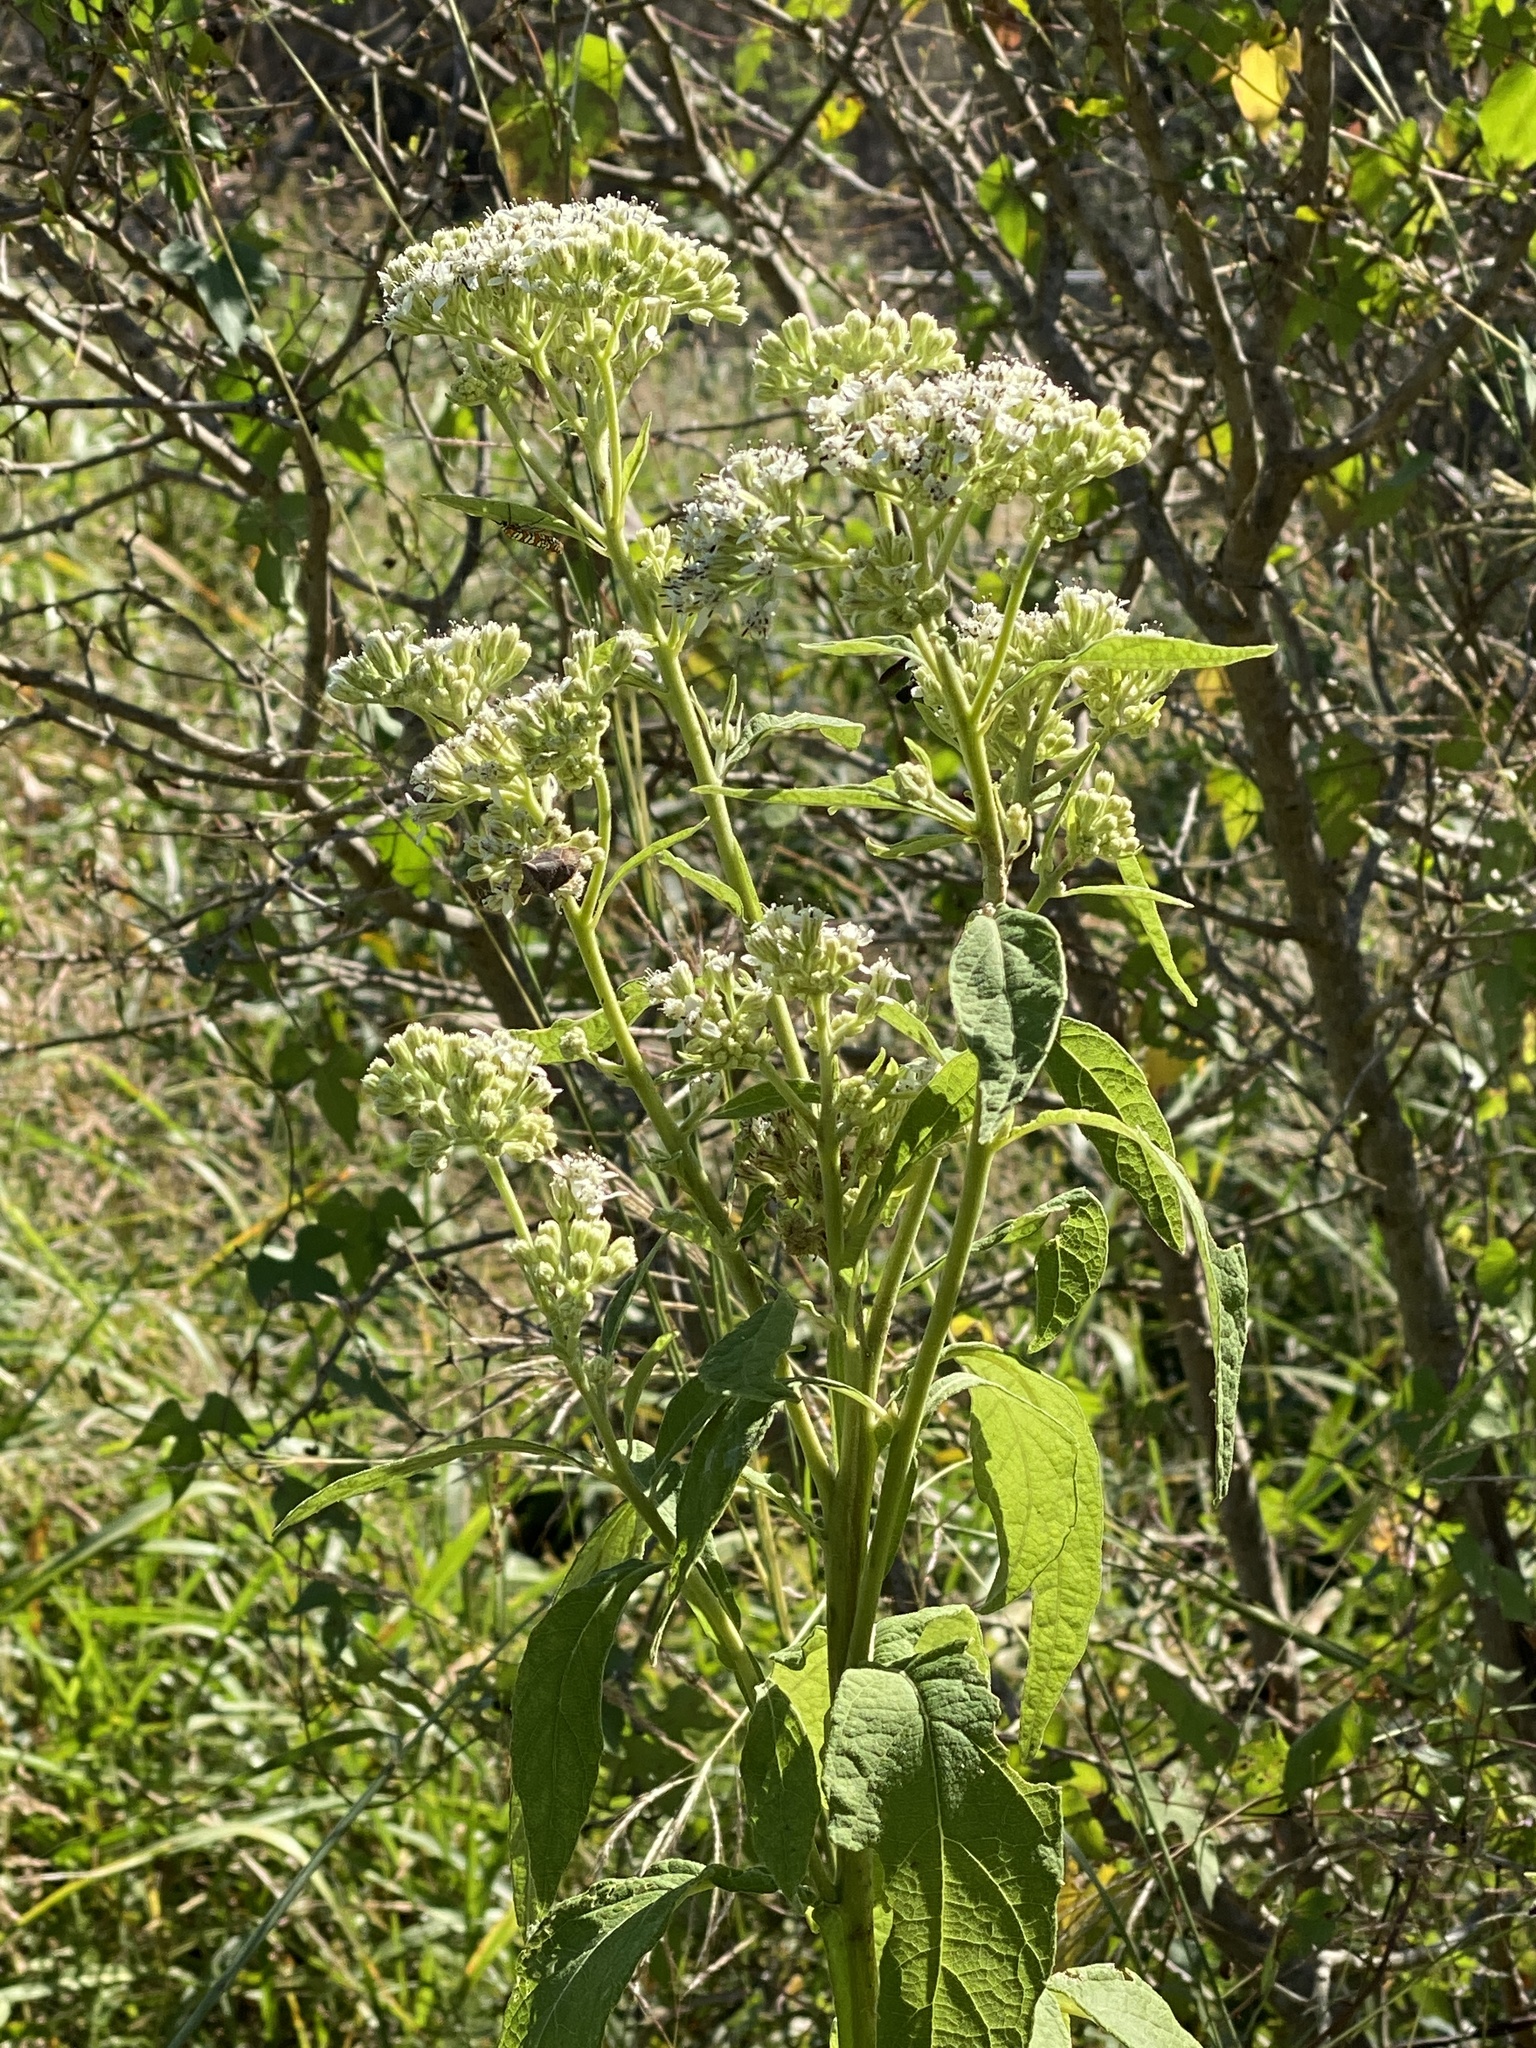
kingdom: Plantae
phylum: Tracheophyta
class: Magnoliopsida
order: Asterales
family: Asteraceae
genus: Verbesina
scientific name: Verbesina virginica
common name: Frostweed
